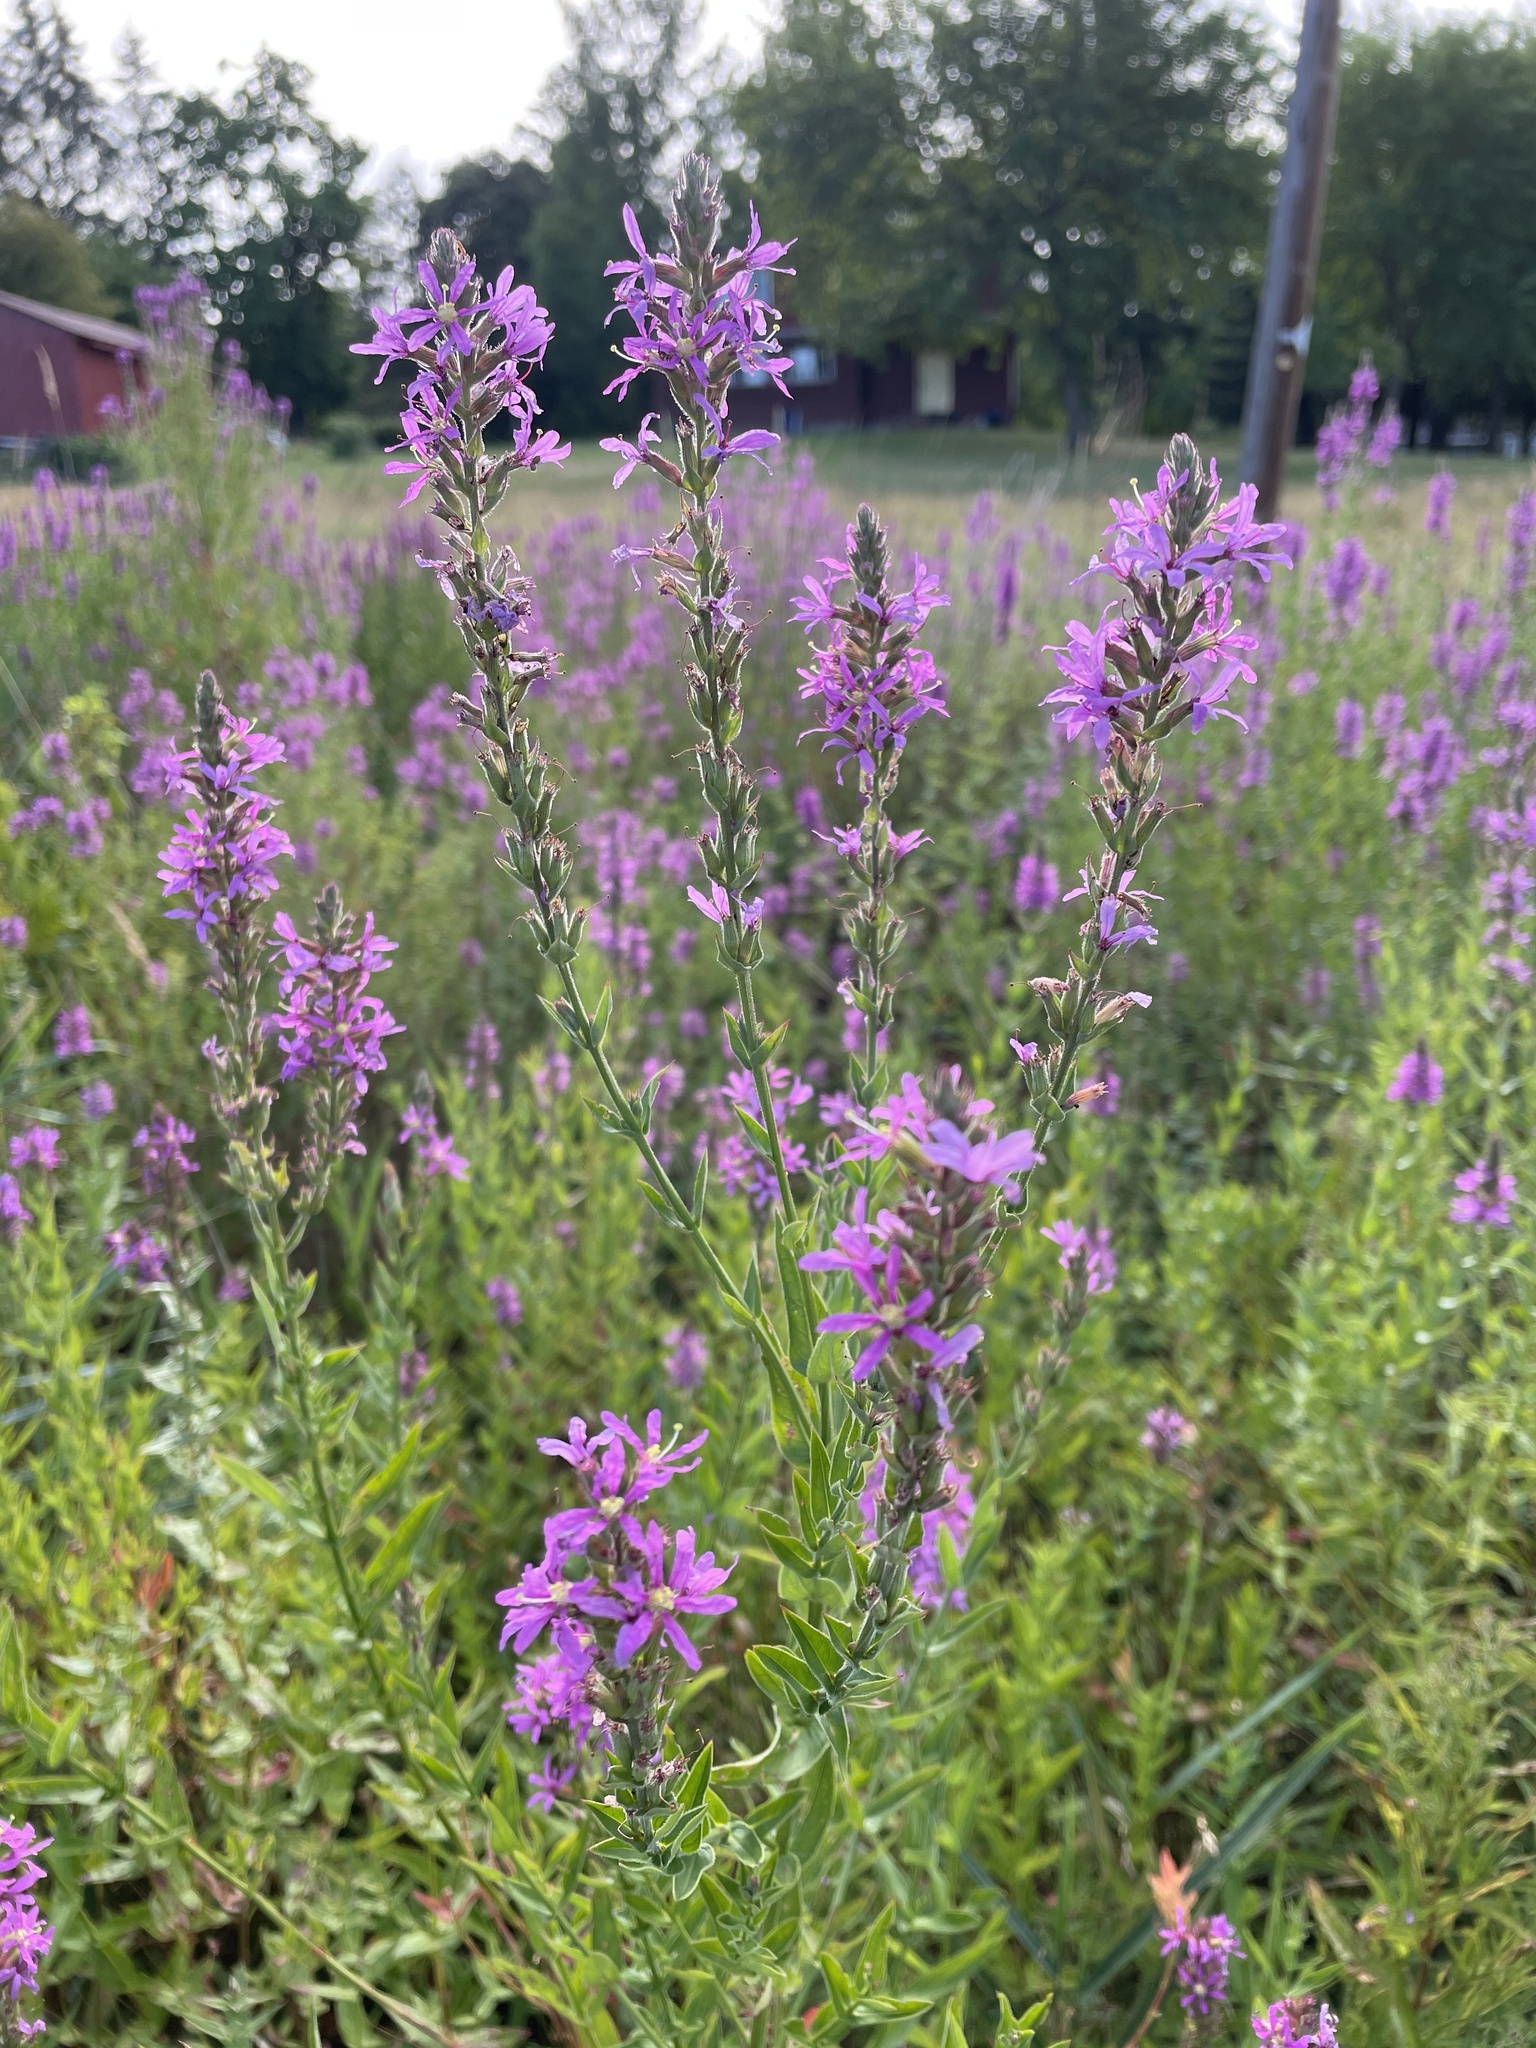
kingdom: Plantae
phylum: Tracheophyta
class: Magnoliopsida
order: Myrtales
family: Lythraceae
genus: Lythrum
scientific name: Lythrum salicaria
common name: Purple loosestrife
